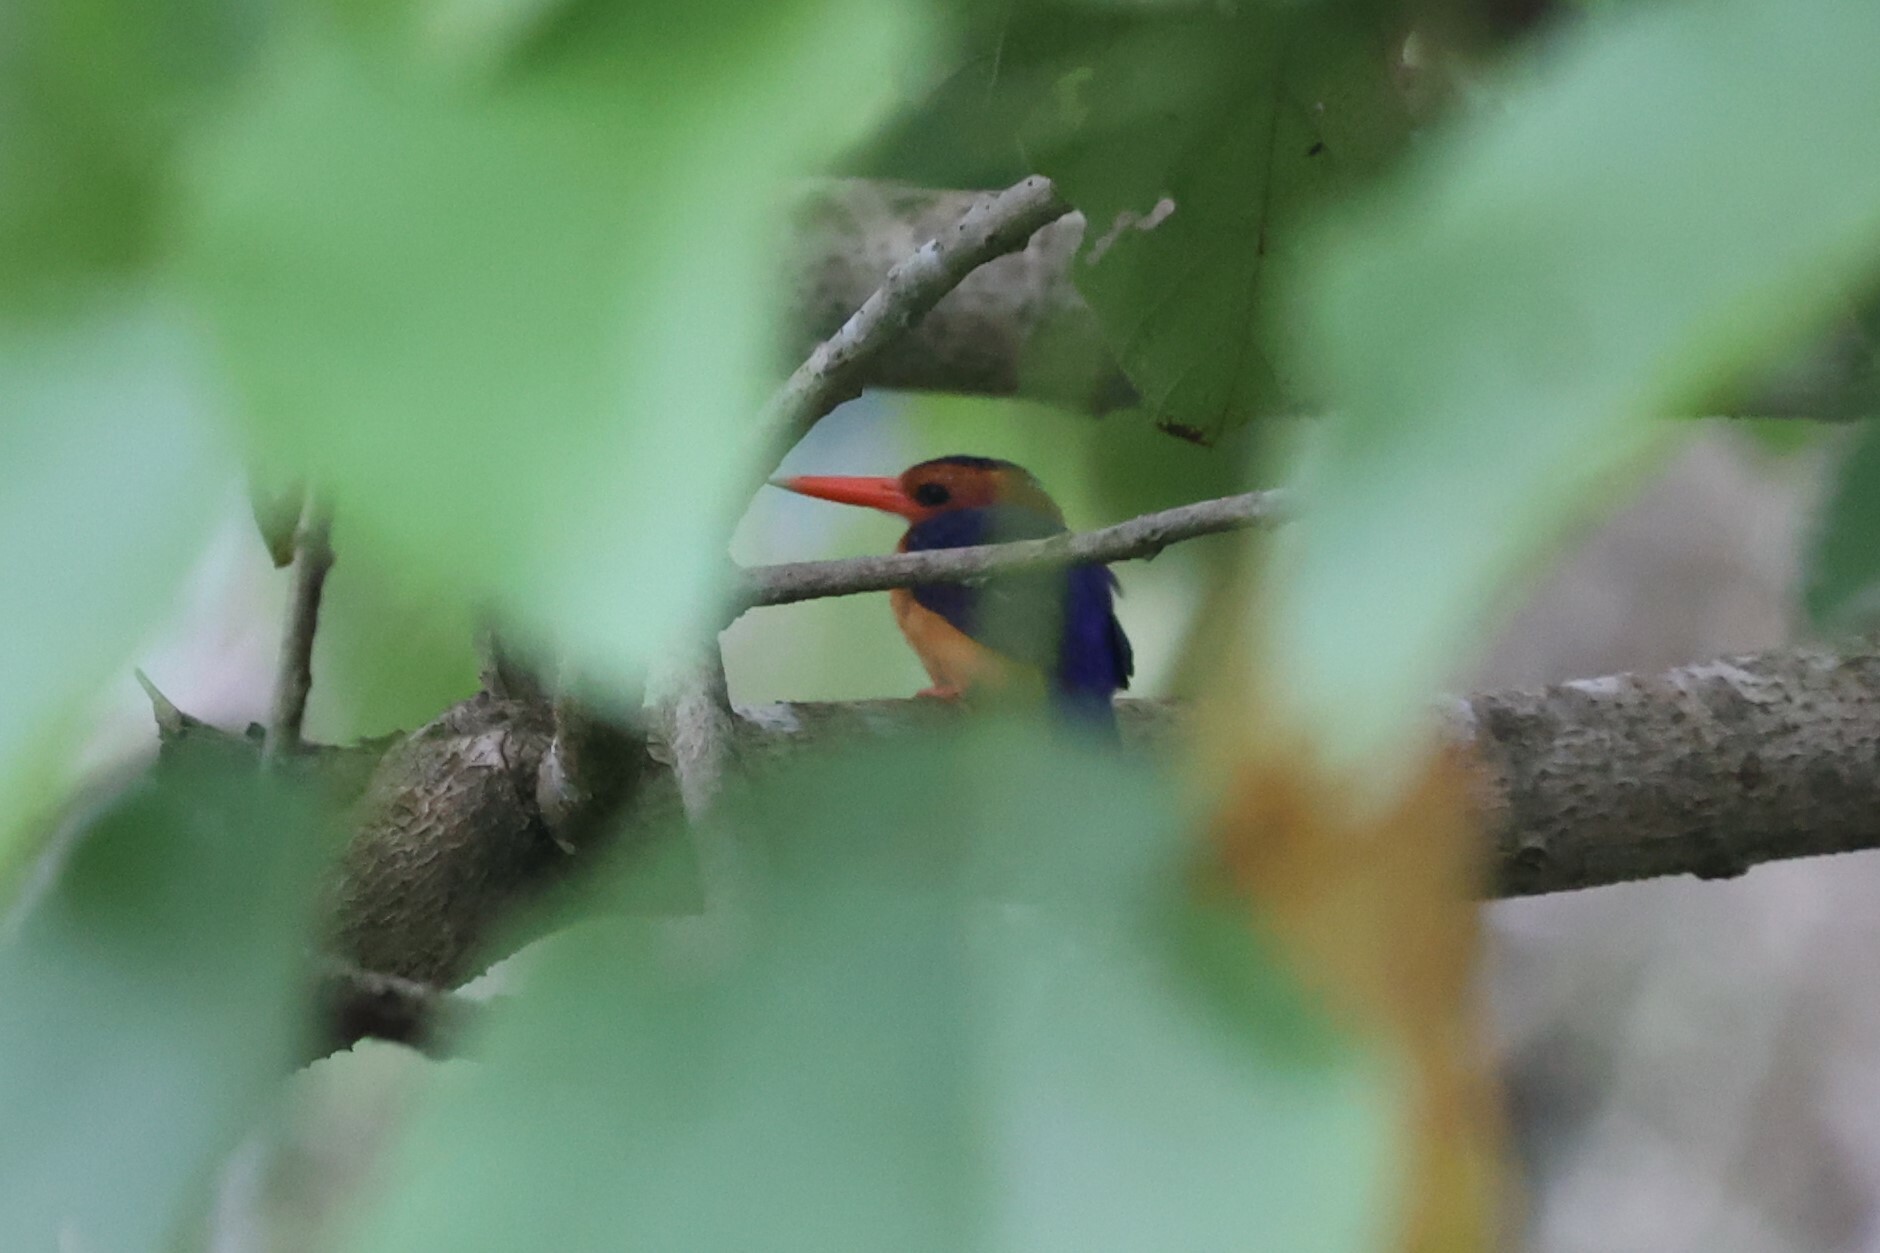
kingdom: Animalia
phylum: Chordata
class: Aves
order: Coraciiformes
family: Alcedinidae
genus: Ispidina
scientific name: Ispidina picta
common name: African pygmy-kingfisher
